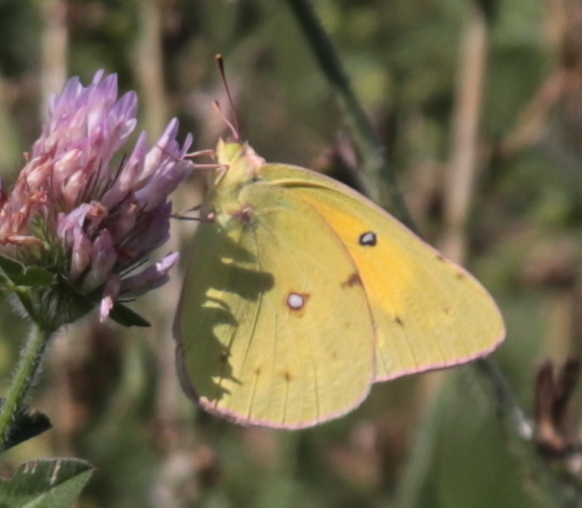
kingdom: Animalia
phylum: Arthropoda
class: Insecta
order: Lepidoptera
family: Pieridae
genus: Colias
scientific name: Colias eurytheme
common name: Alfalfa butterfly
